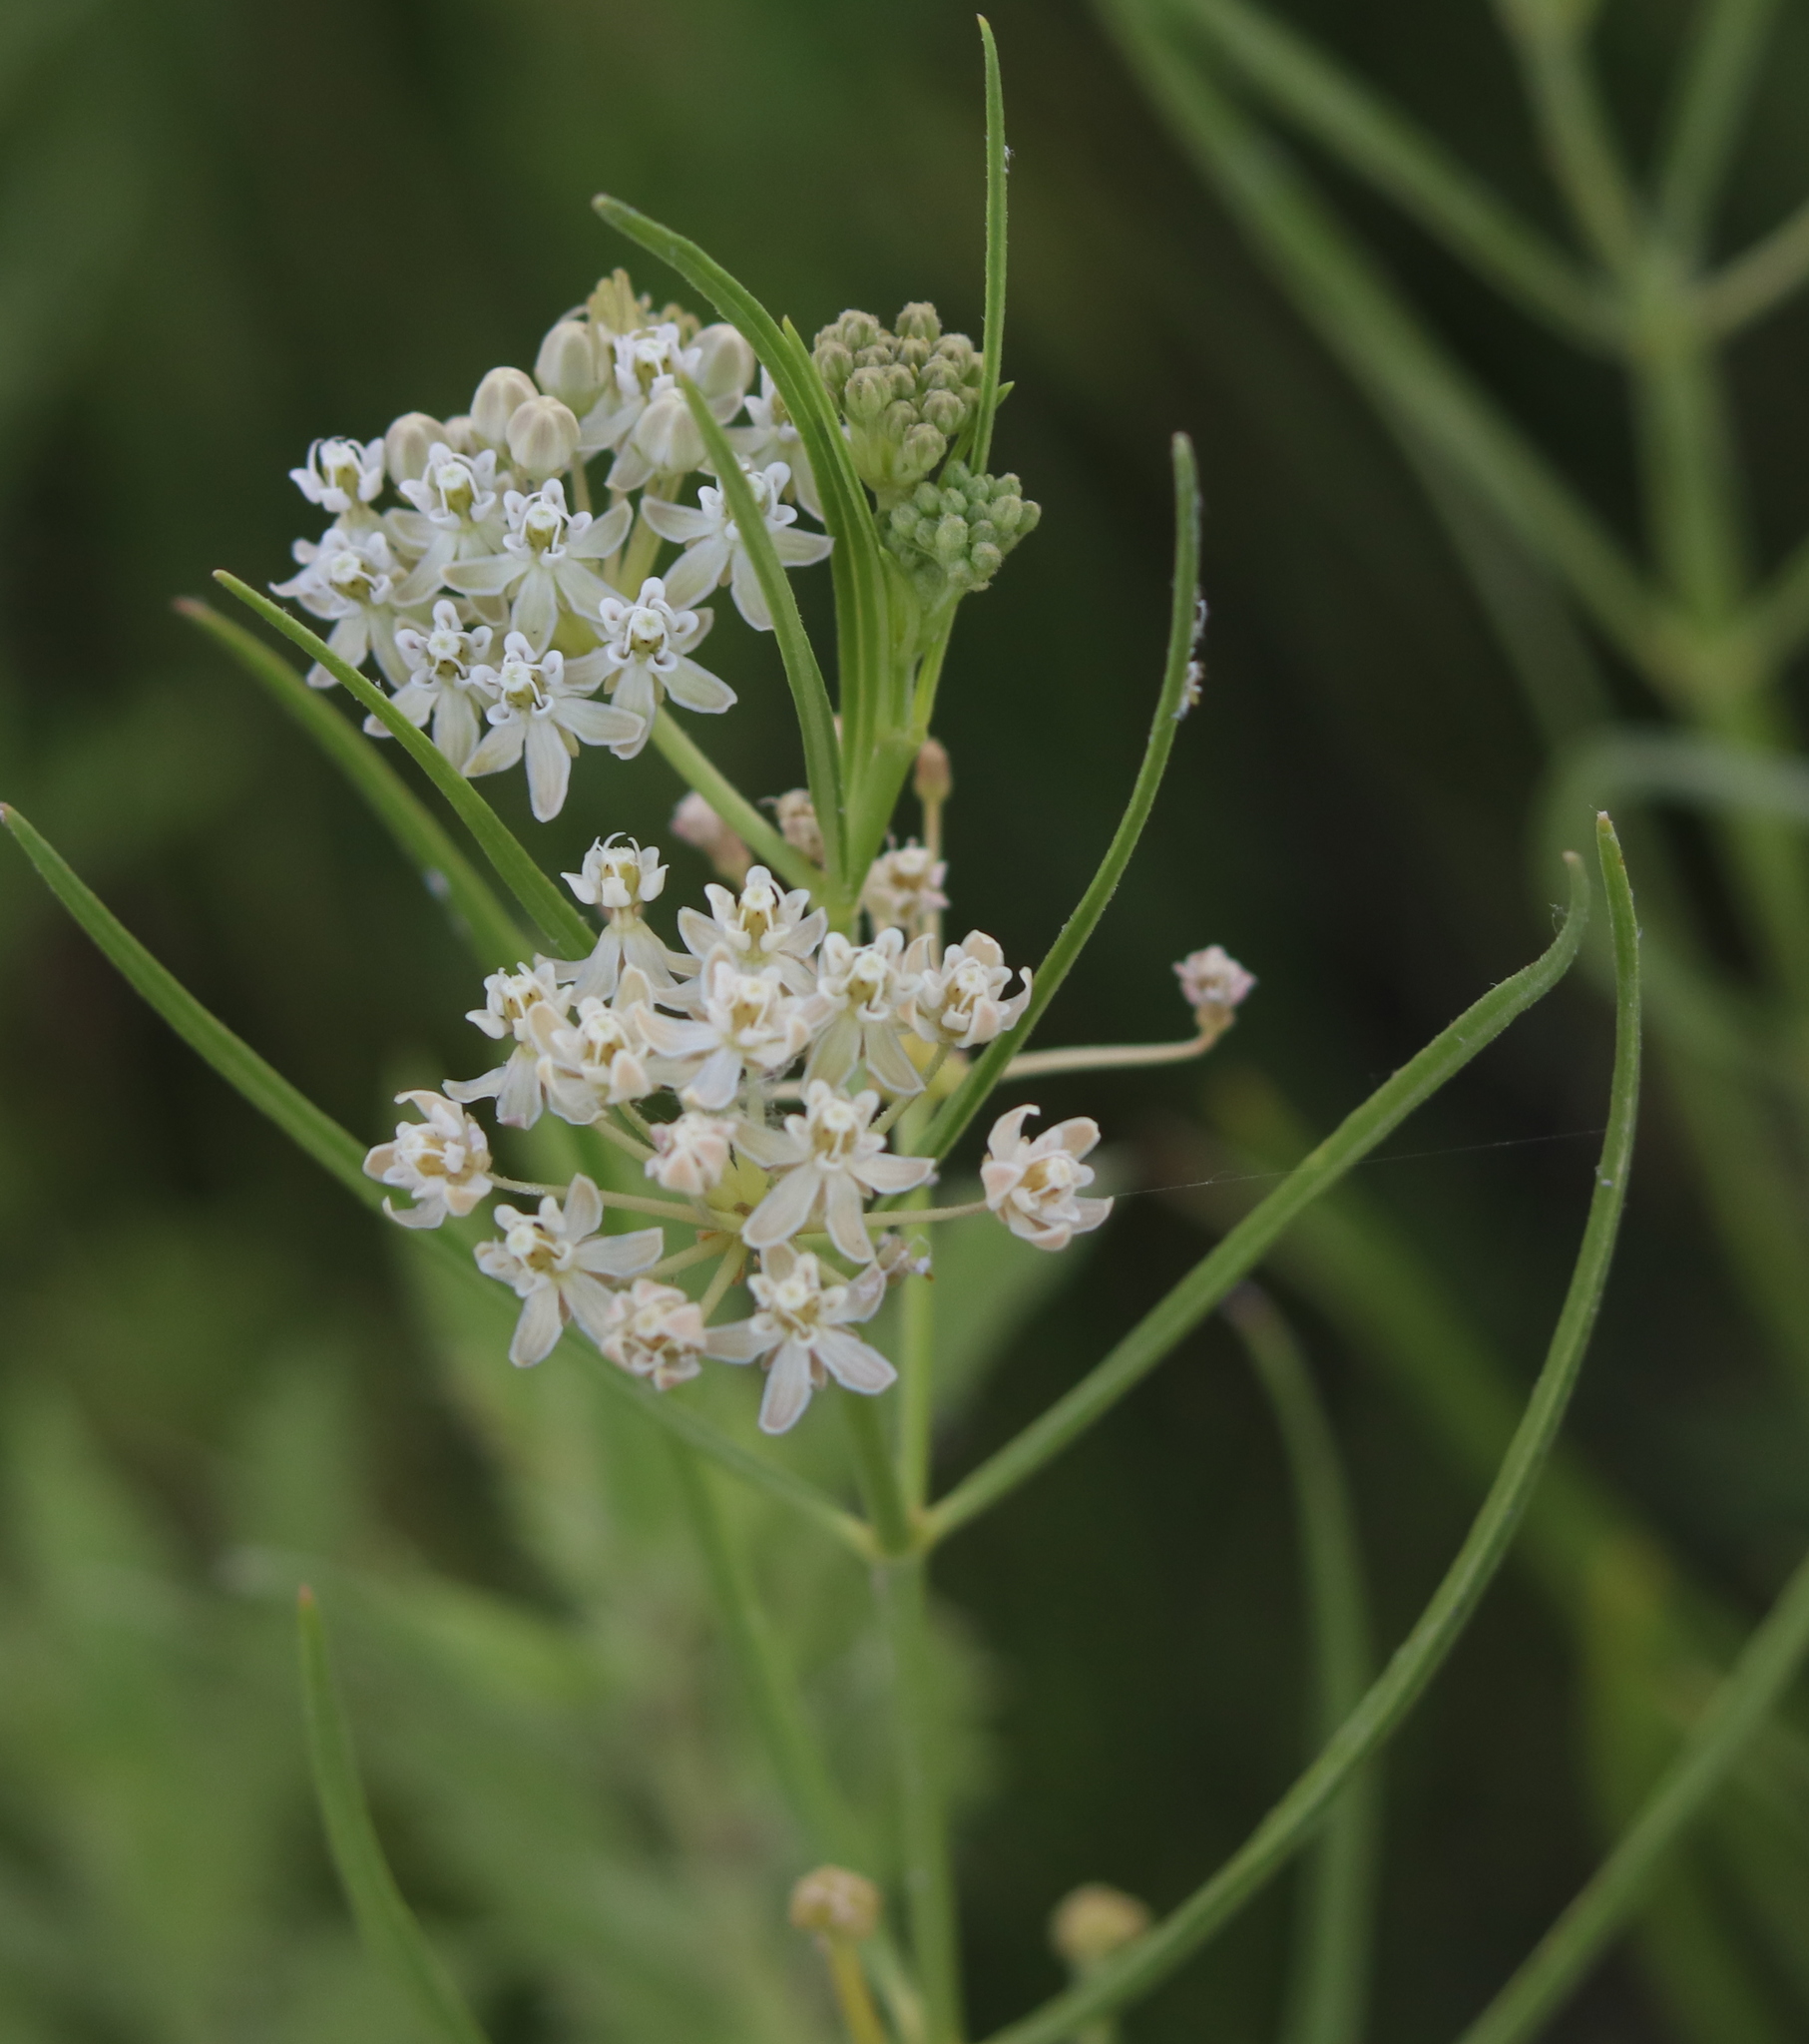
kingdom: Plantae
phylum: Tracheophyta
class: Magnoliopsida
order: Gentianales
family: Apocynaceae
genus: Asclepias
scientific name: Asclepias subverticillata
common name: Horsetail milkweed
